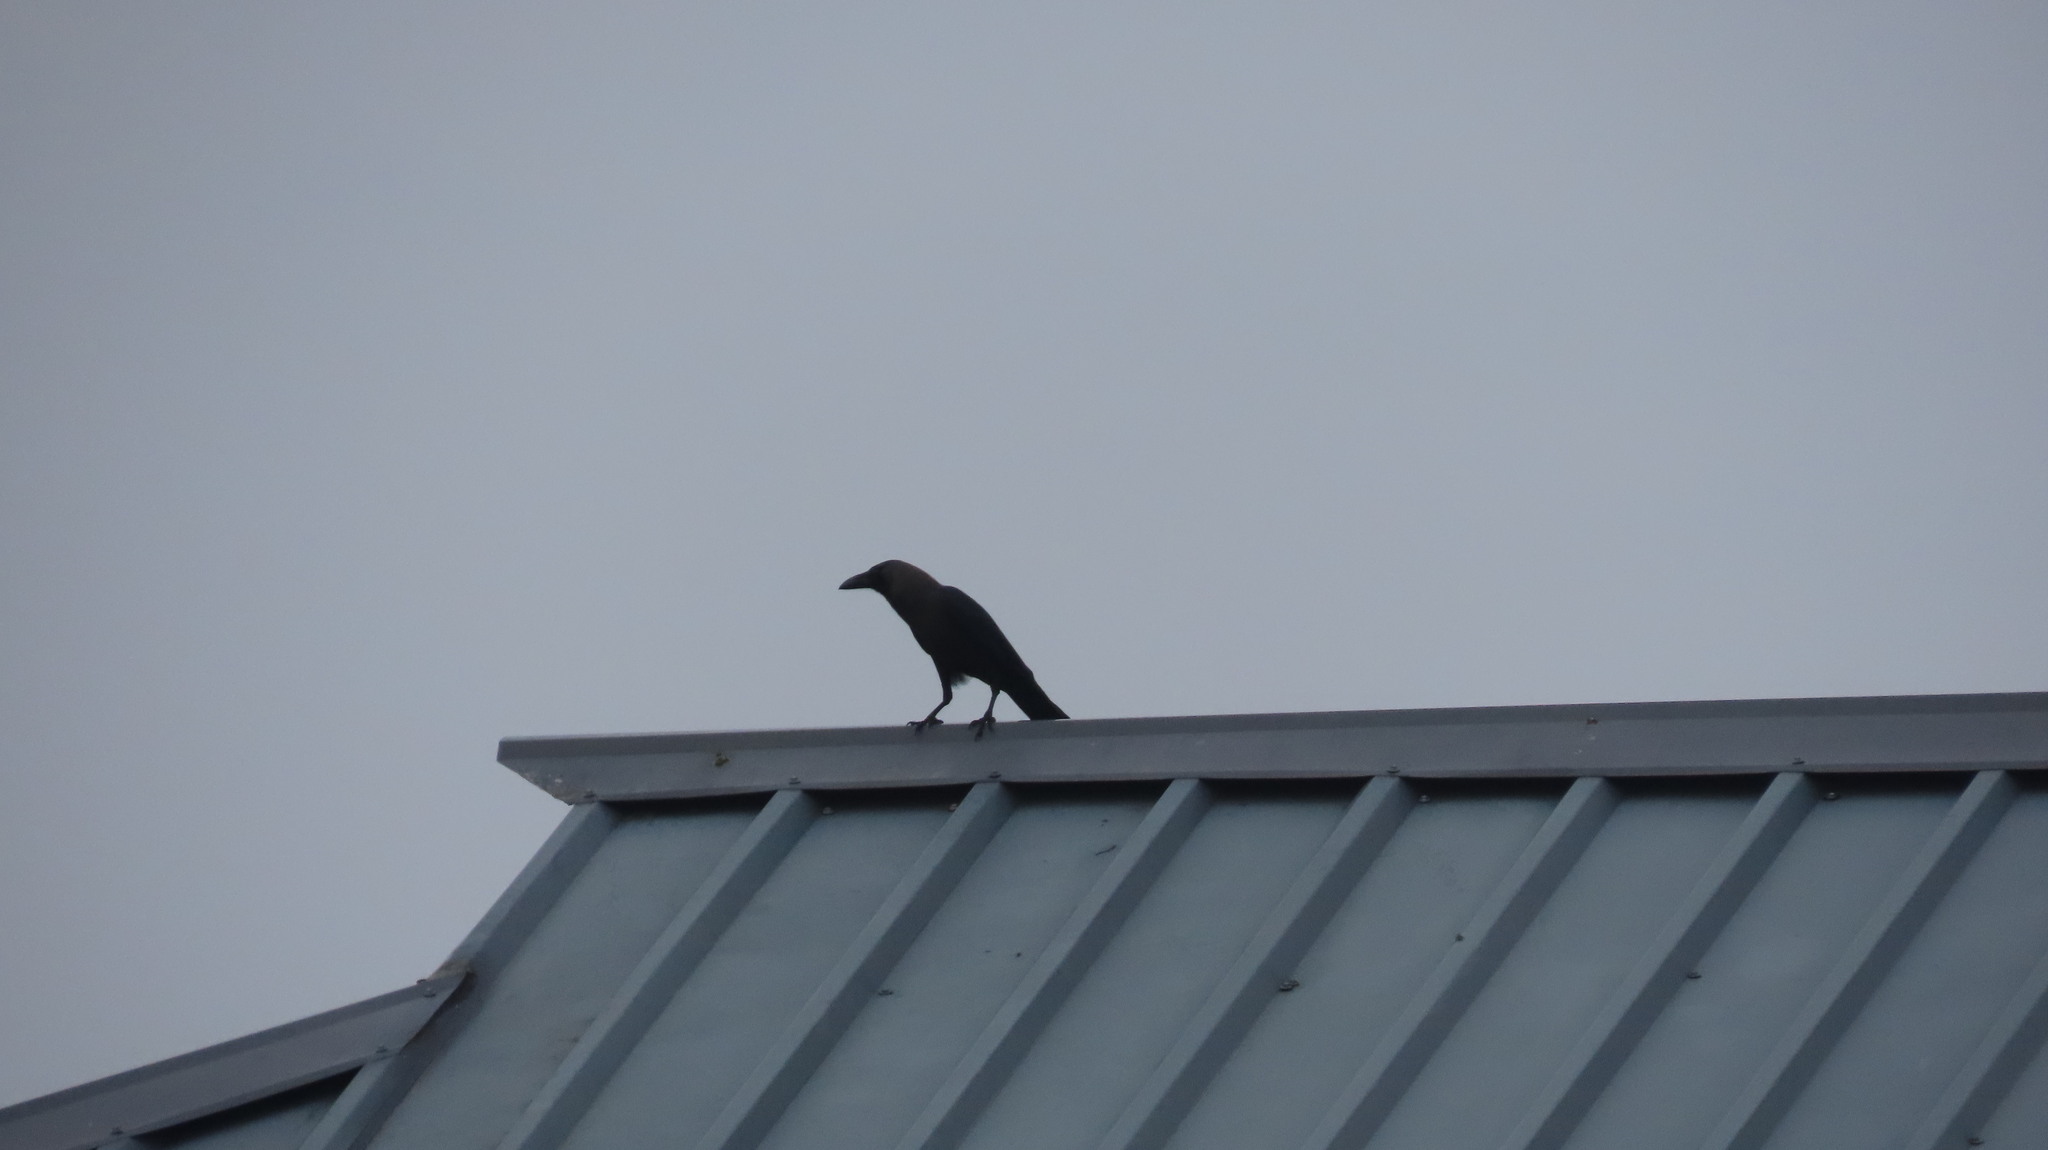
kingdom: Animalia
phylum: Chordata
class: Aves
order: Passeriformes
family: Corvidae
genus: Corvus
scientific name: Corvus splendens
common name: House crow
